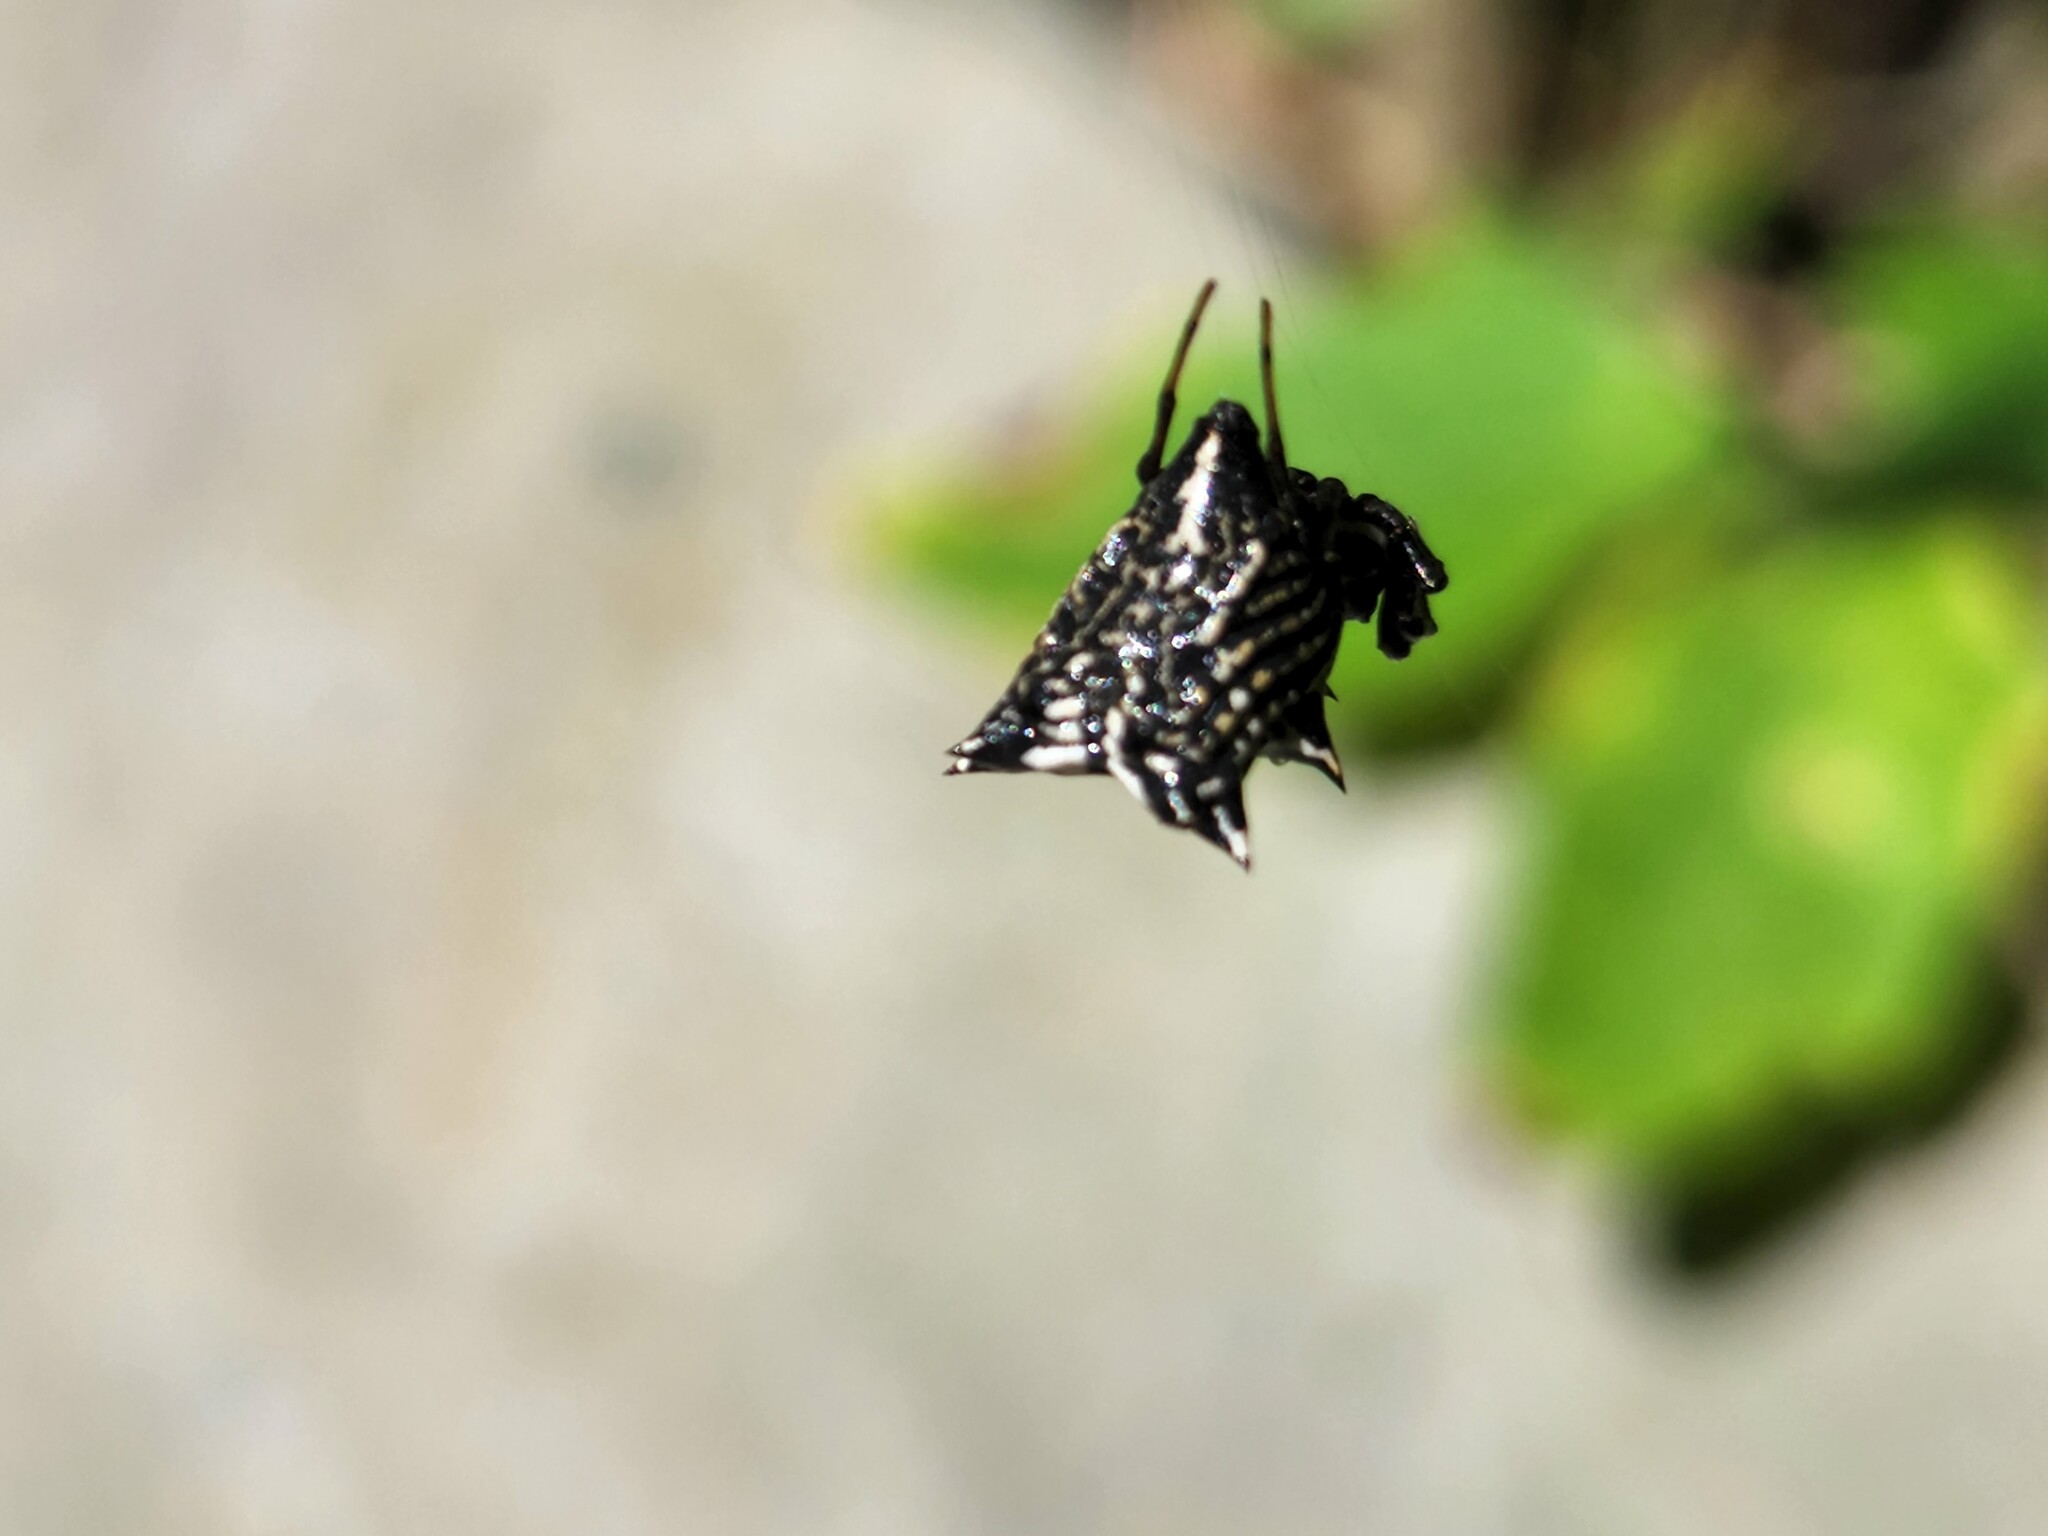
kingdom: Animalia
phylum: Arthropoda
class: Arachnida
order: Araneae
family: Araneidae
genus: Micrathena
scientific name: Micrathena gracilis
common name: Orb weavers
